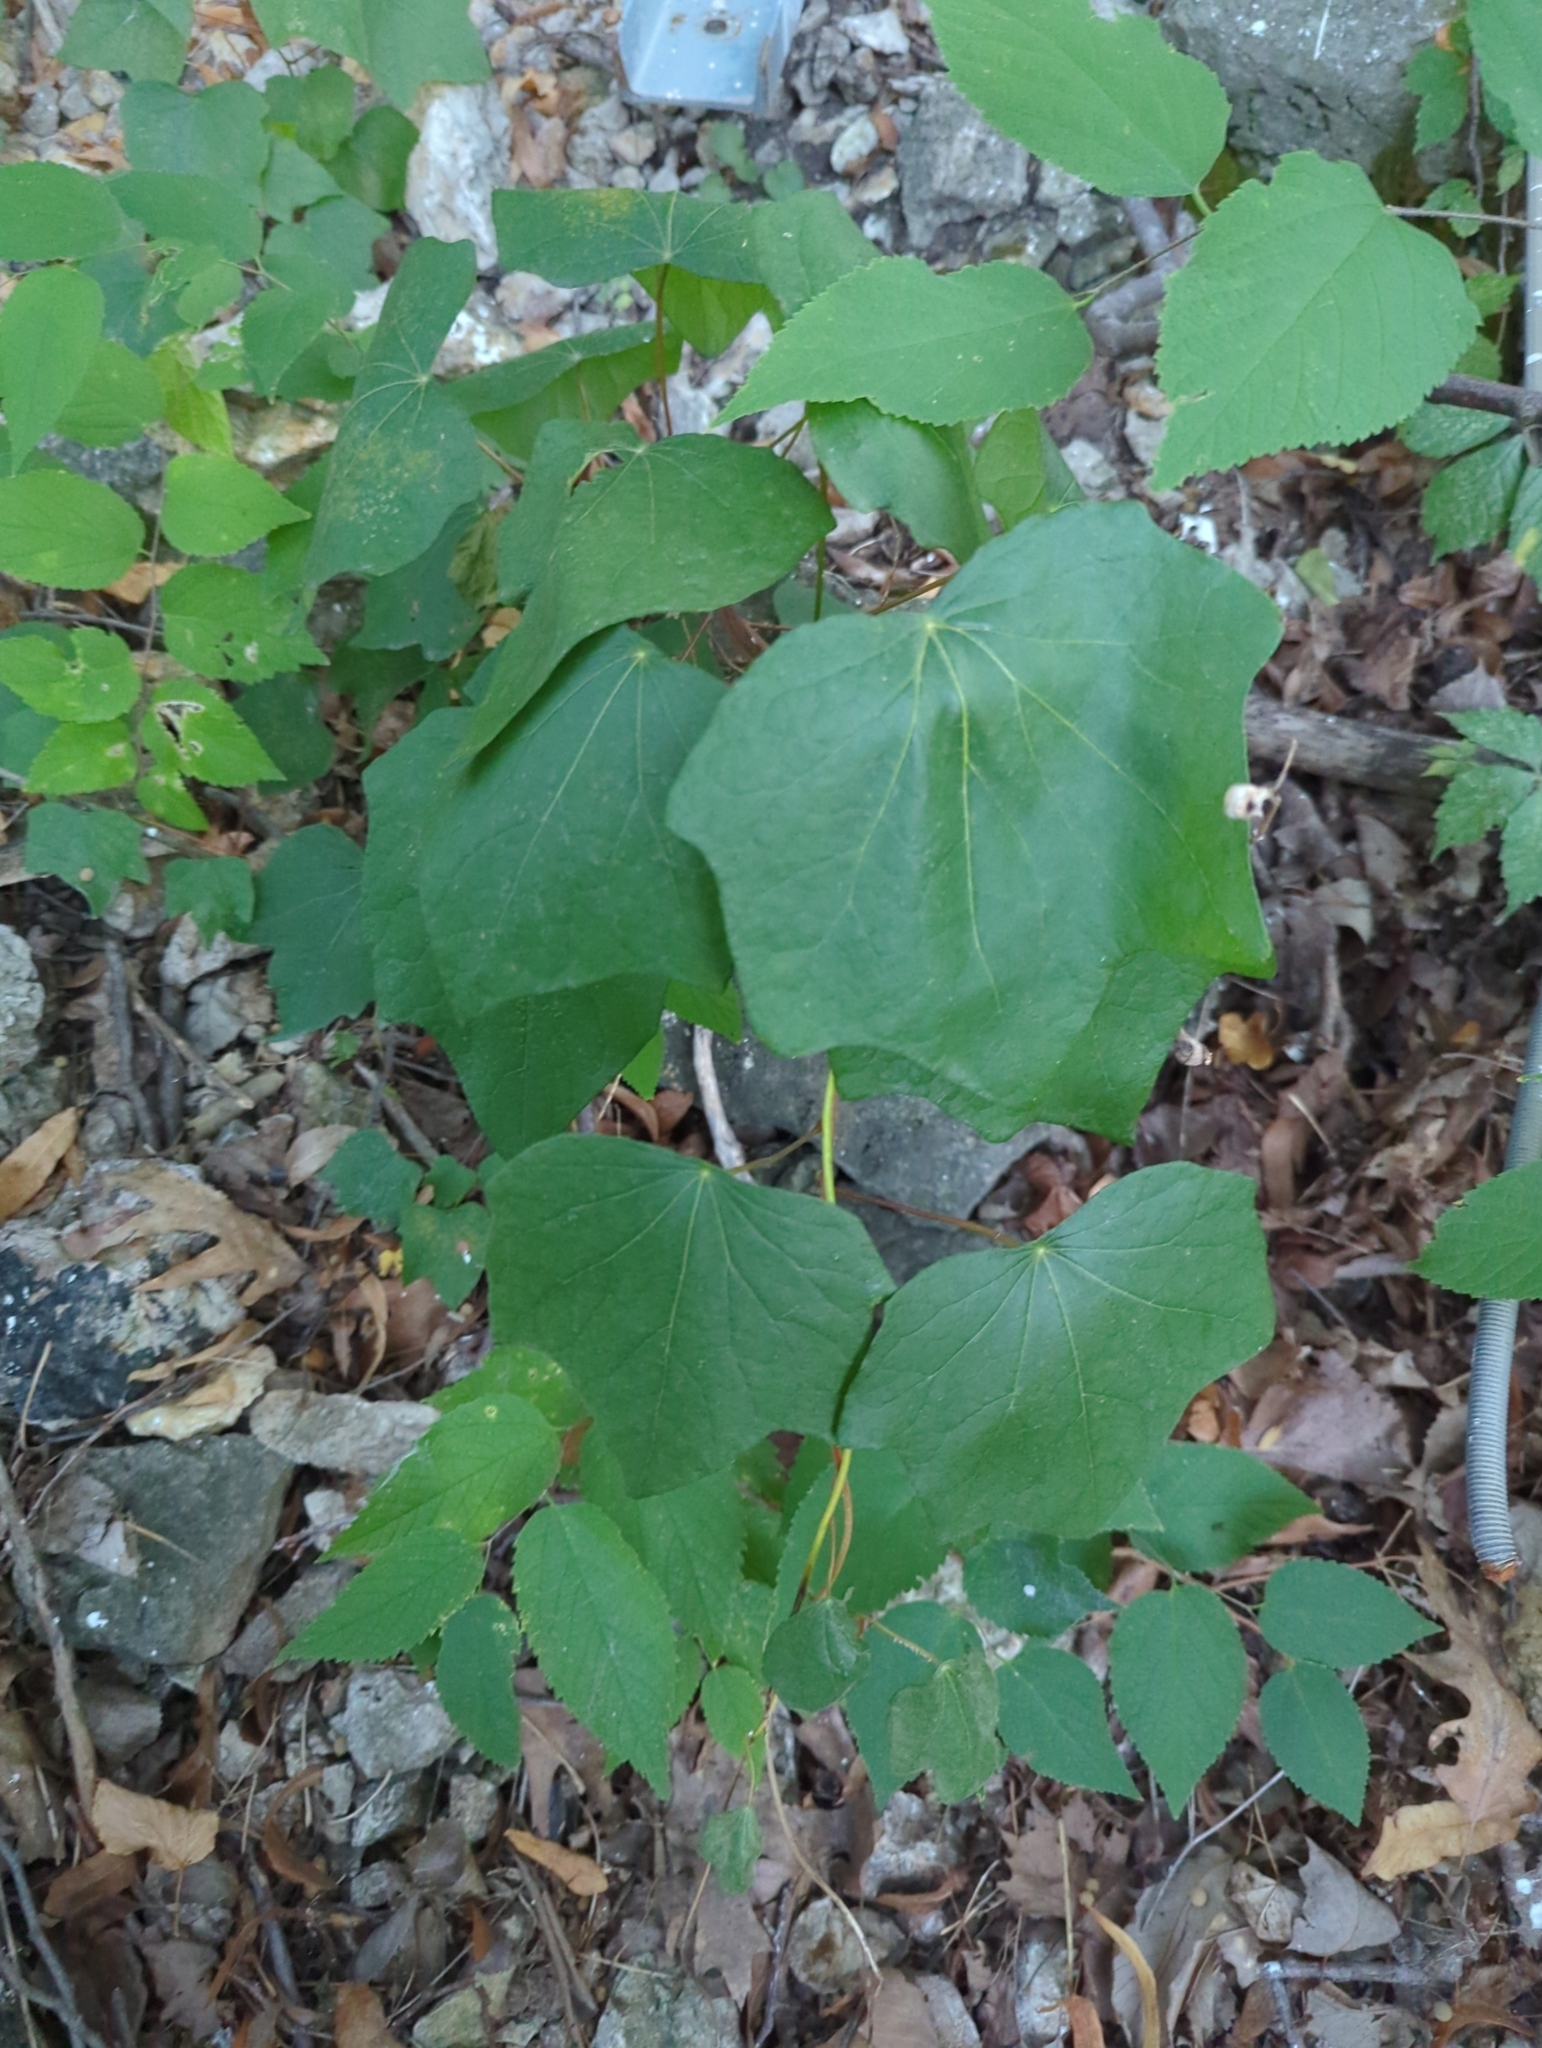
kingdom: Plantae
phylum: Tracheophyta
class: Magnoliopsida
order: Ranunculales
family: Menispermaceae
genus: Menispermum
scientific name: Menispermum canadense
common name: Moonseed
